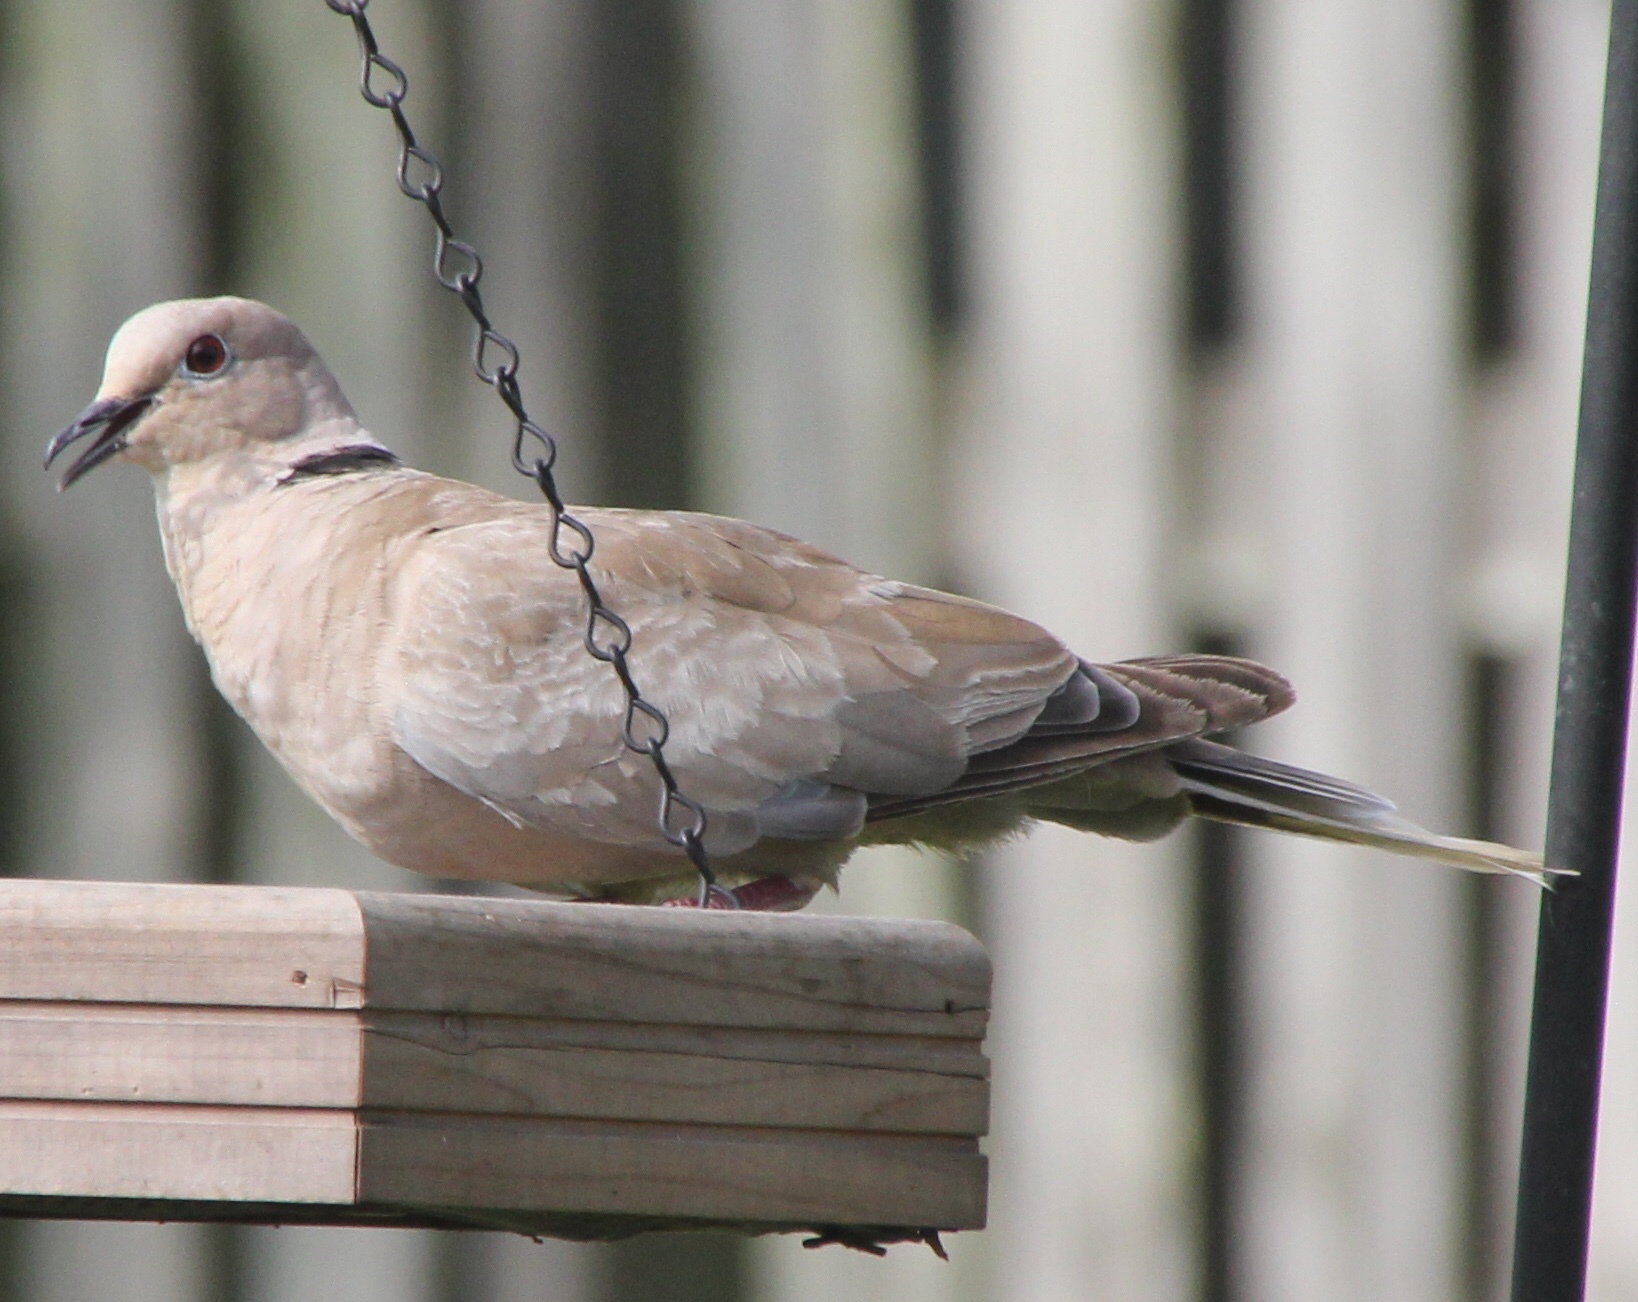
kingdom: Animalia
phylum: Chordata
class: Aves
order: Columbiformes
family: Columbidae
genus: Streptopelia
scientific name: Streptopelia decaocto
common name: Eurasian collared dove
